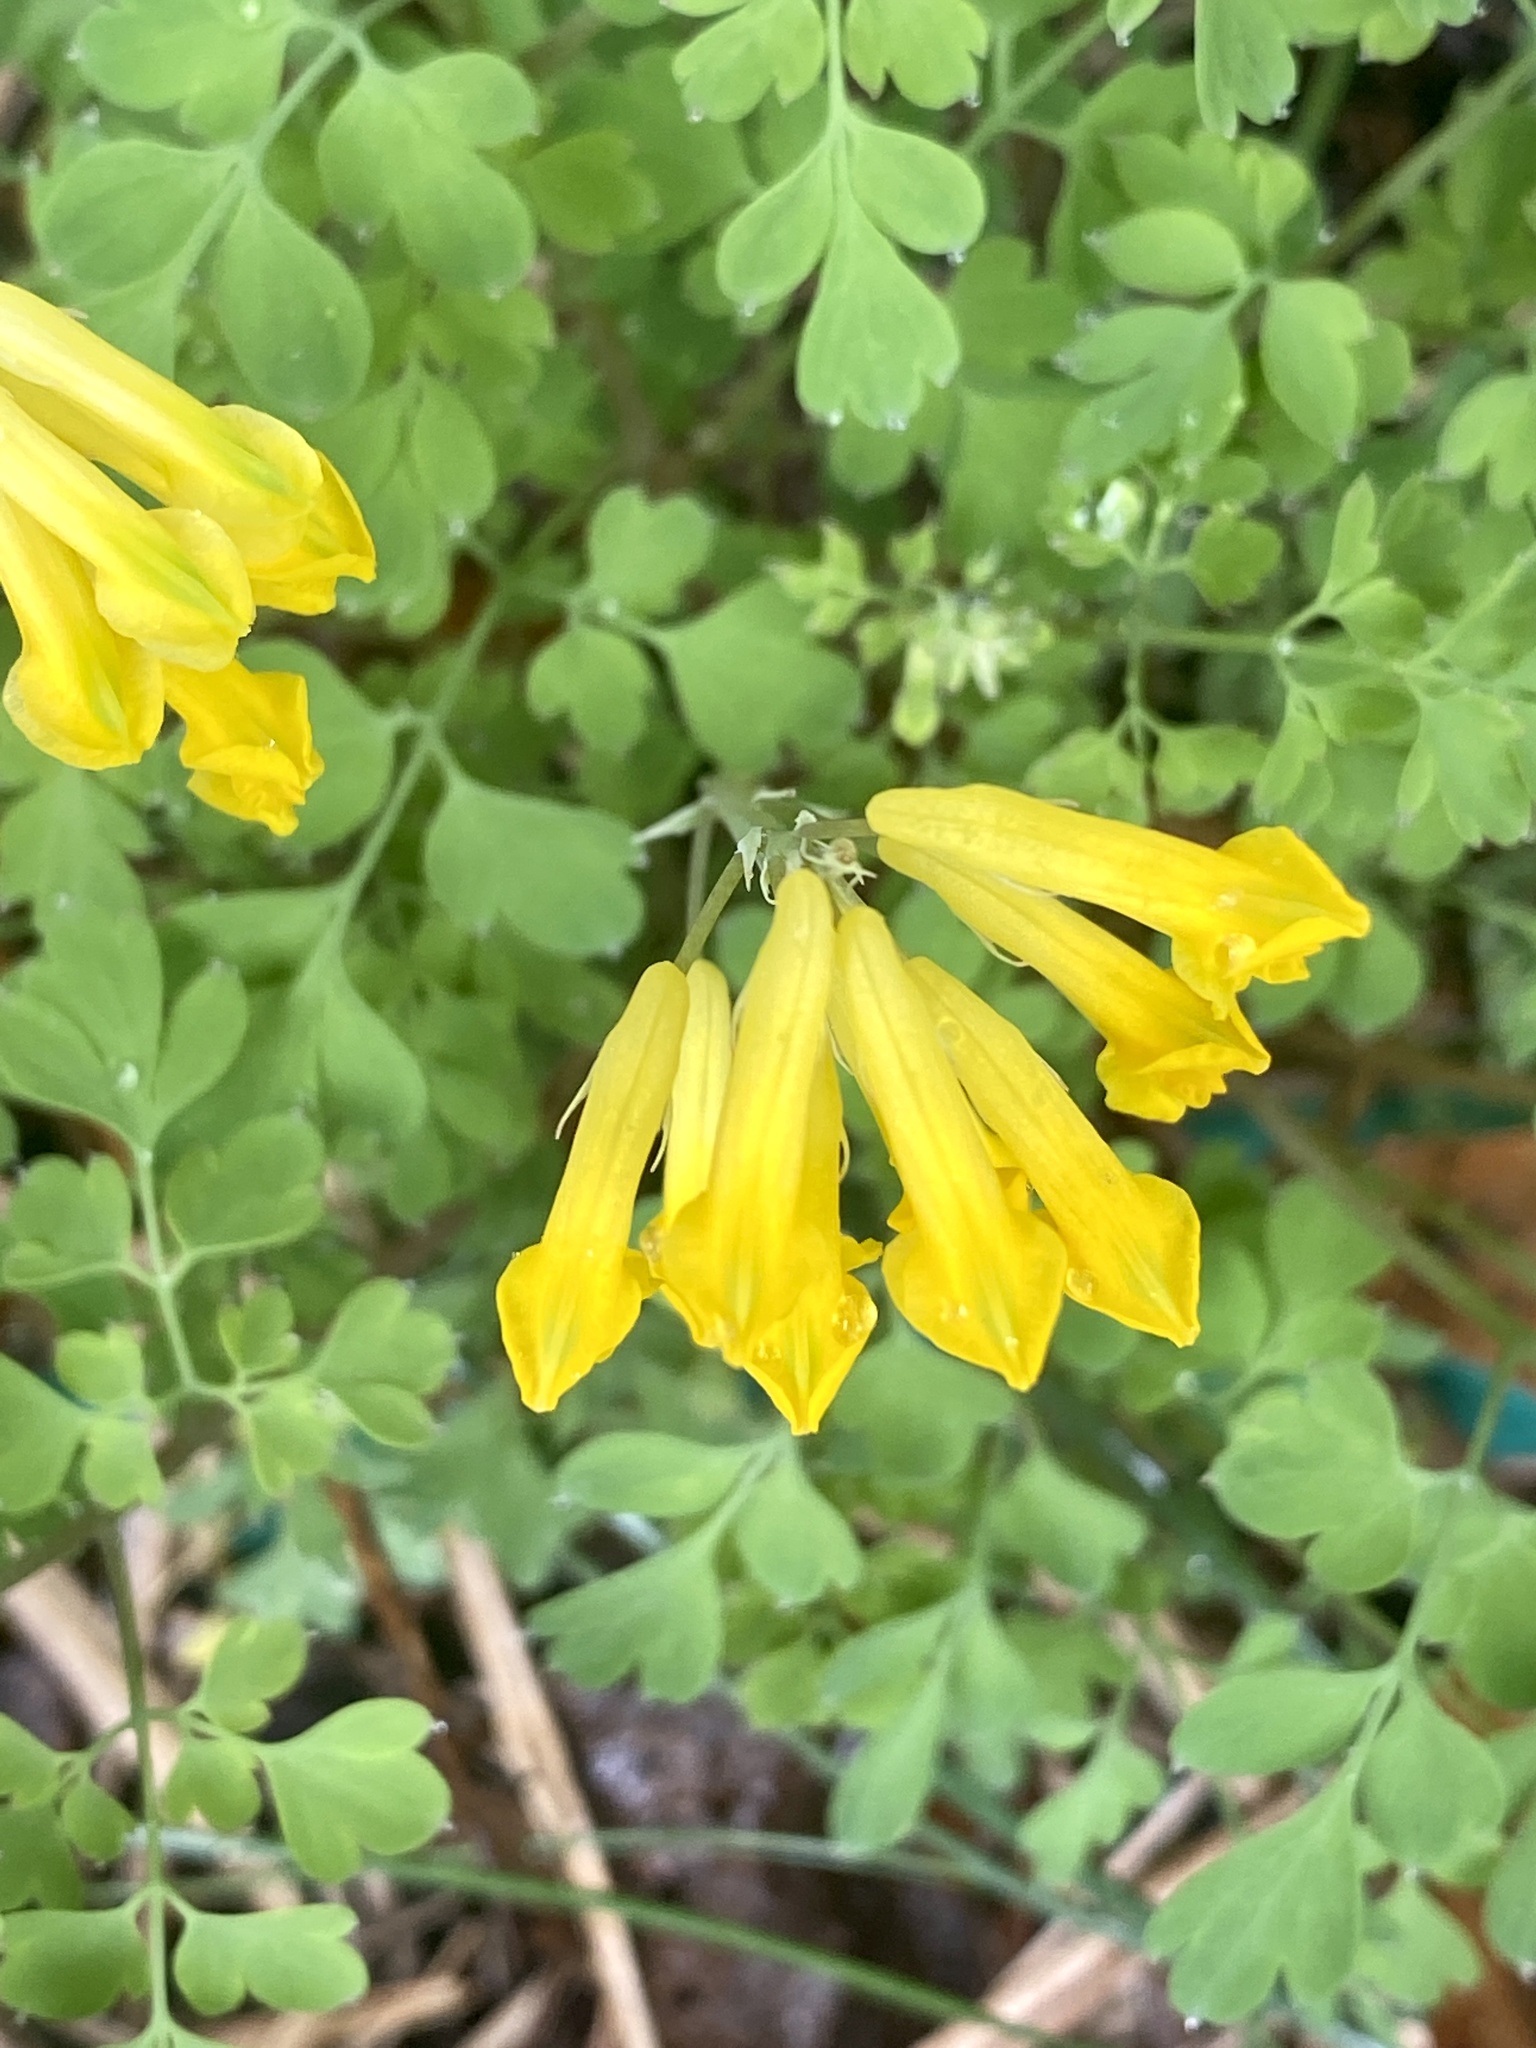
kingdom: Plantae
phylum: Tracheophyta
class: Magnoliopsida
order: Ranunculales
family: Papaveraceae
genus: Pseudofumaria
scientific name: Pseudofumaria lutea
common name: Yellow corydalis
